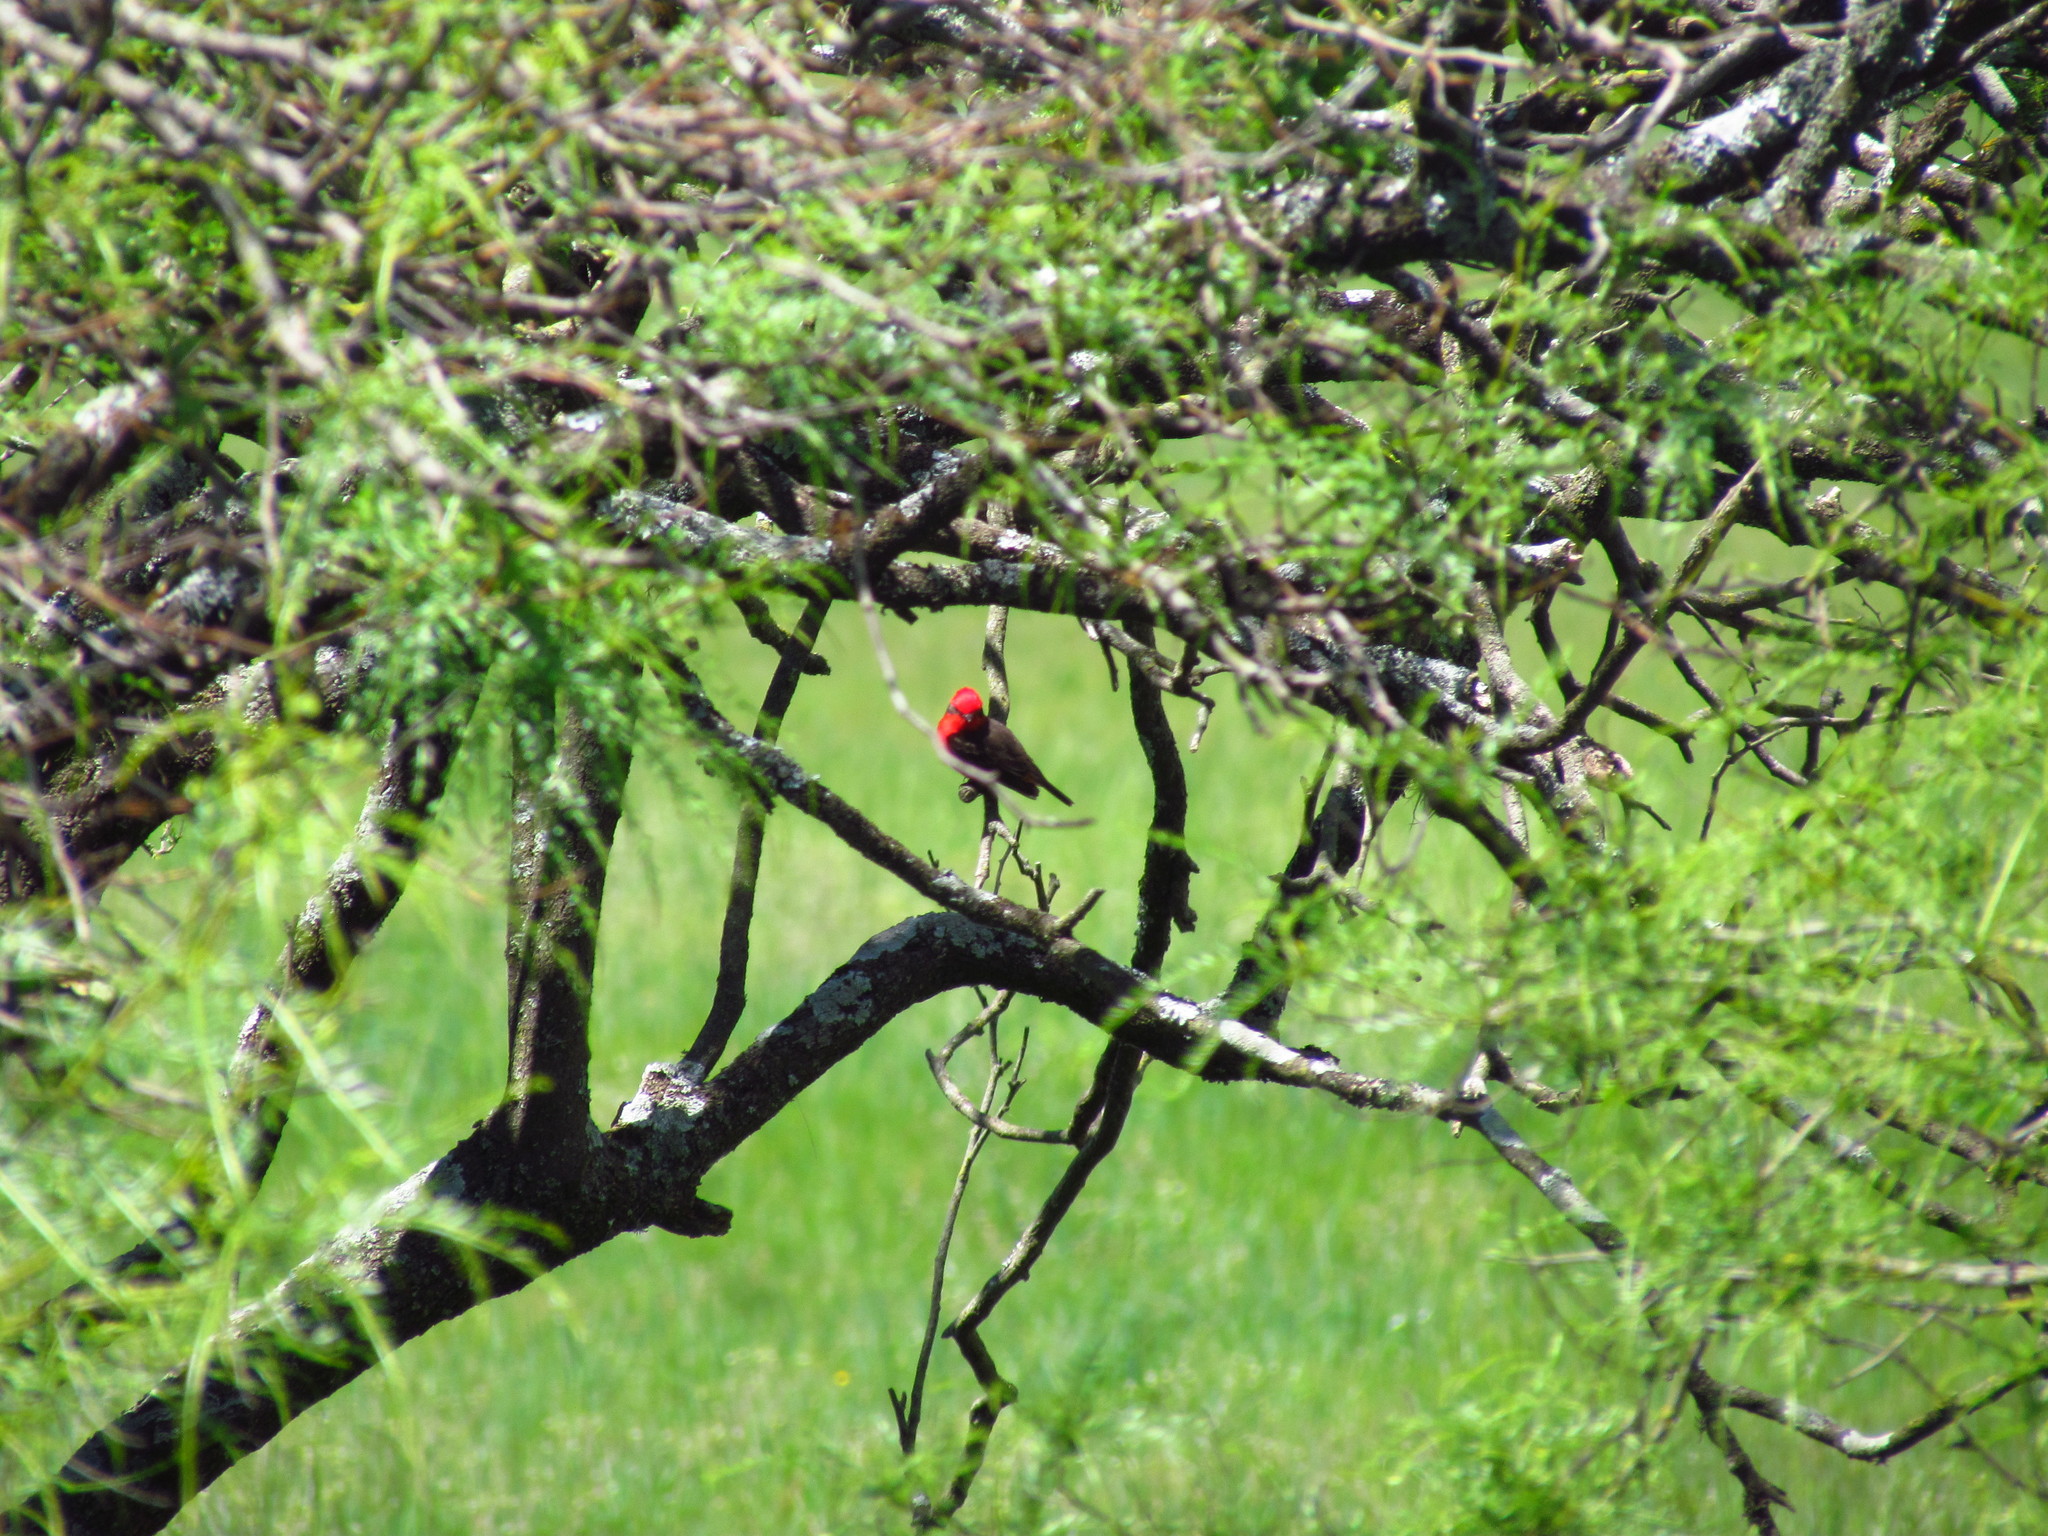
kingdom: Animalia
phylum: Chordata
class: Aves
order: Passeriformes
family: Tyrannidae
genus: Pyrocephalus
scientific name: Pyrocephalus rubinus
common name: Vermilion flycatcher
